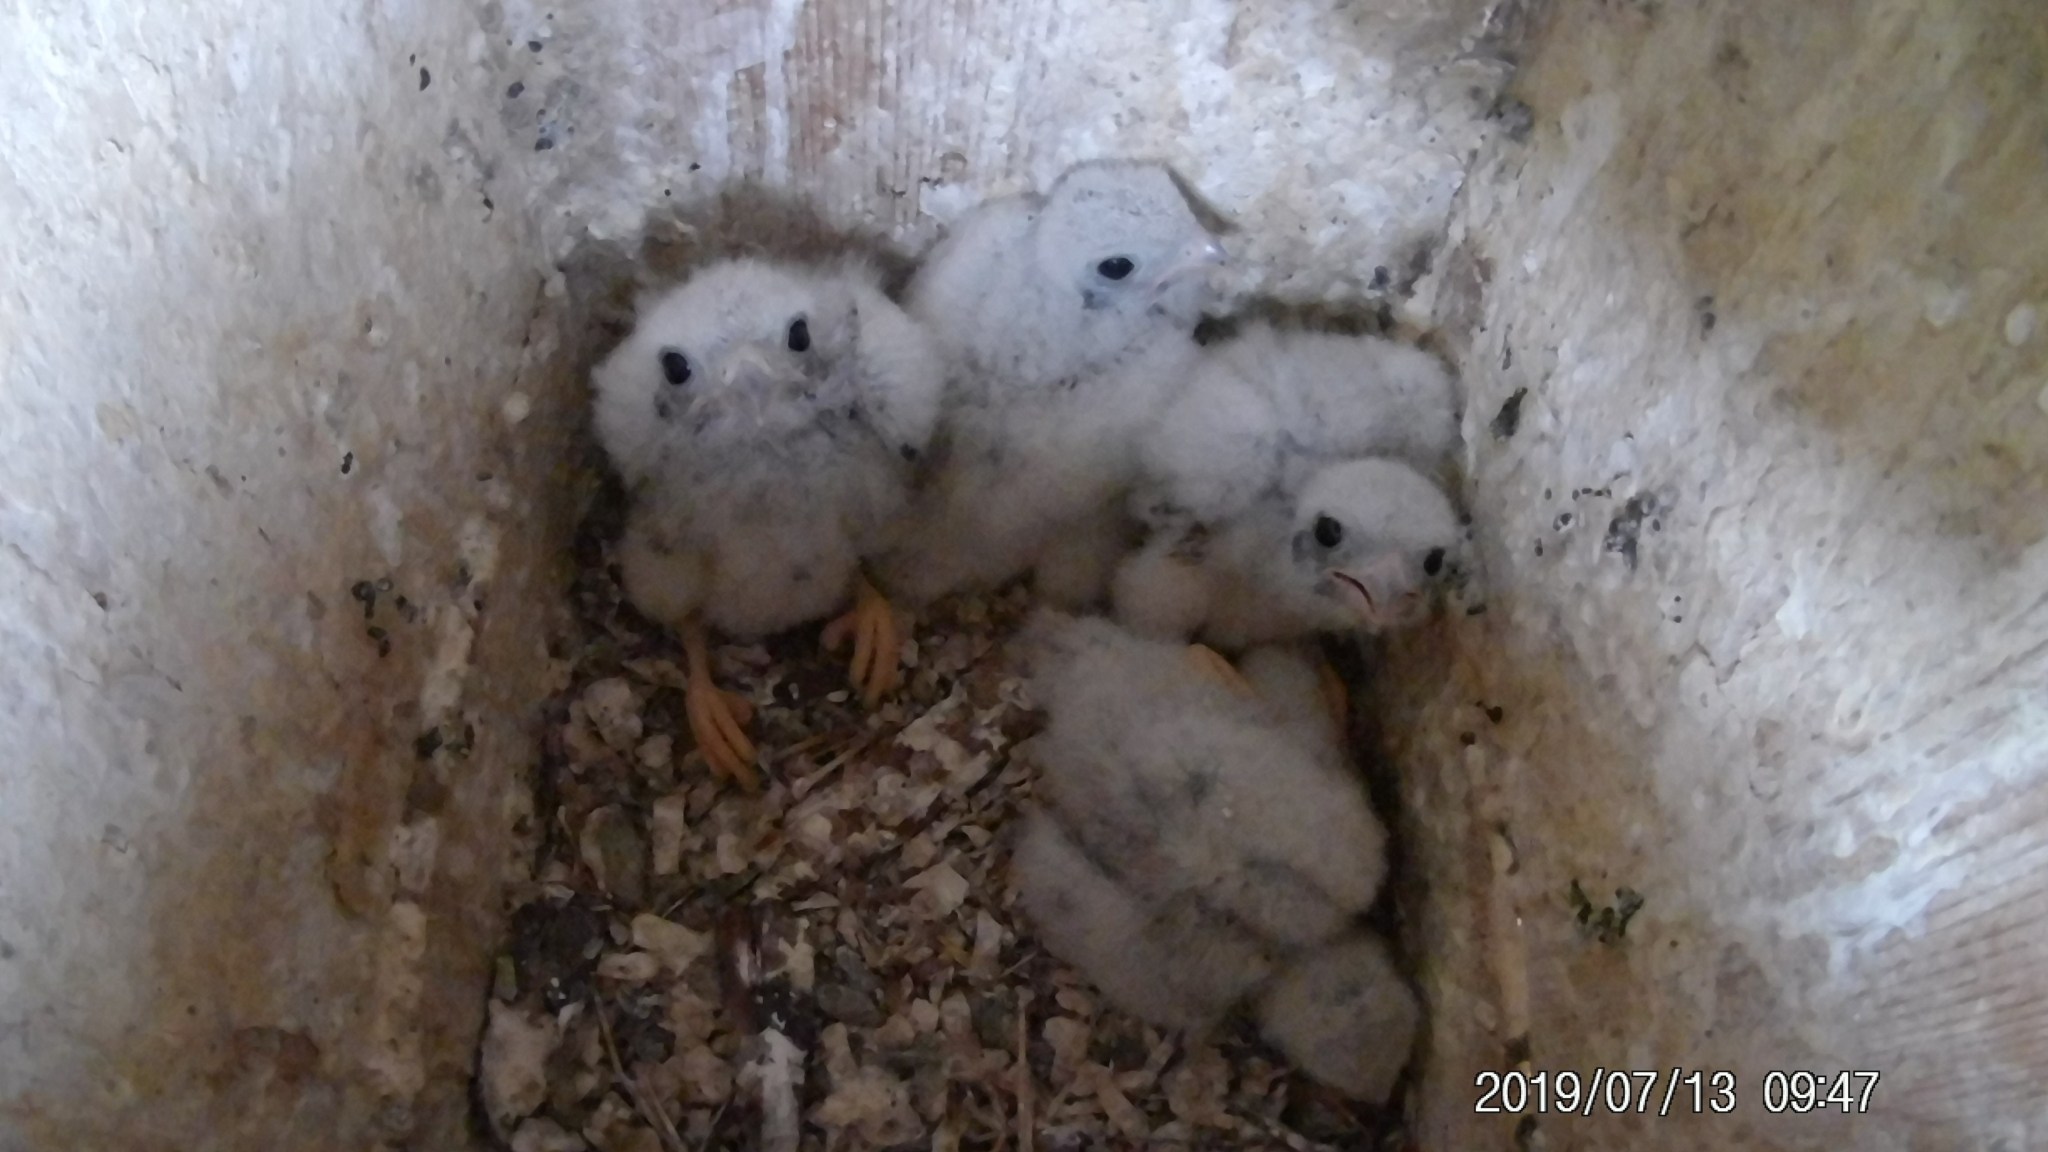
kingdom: Animalia
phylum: Chordata
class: Aves
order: Falconiformes
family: Falconidae
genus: Falco
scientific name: Falco sparverius
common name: American kestrel
